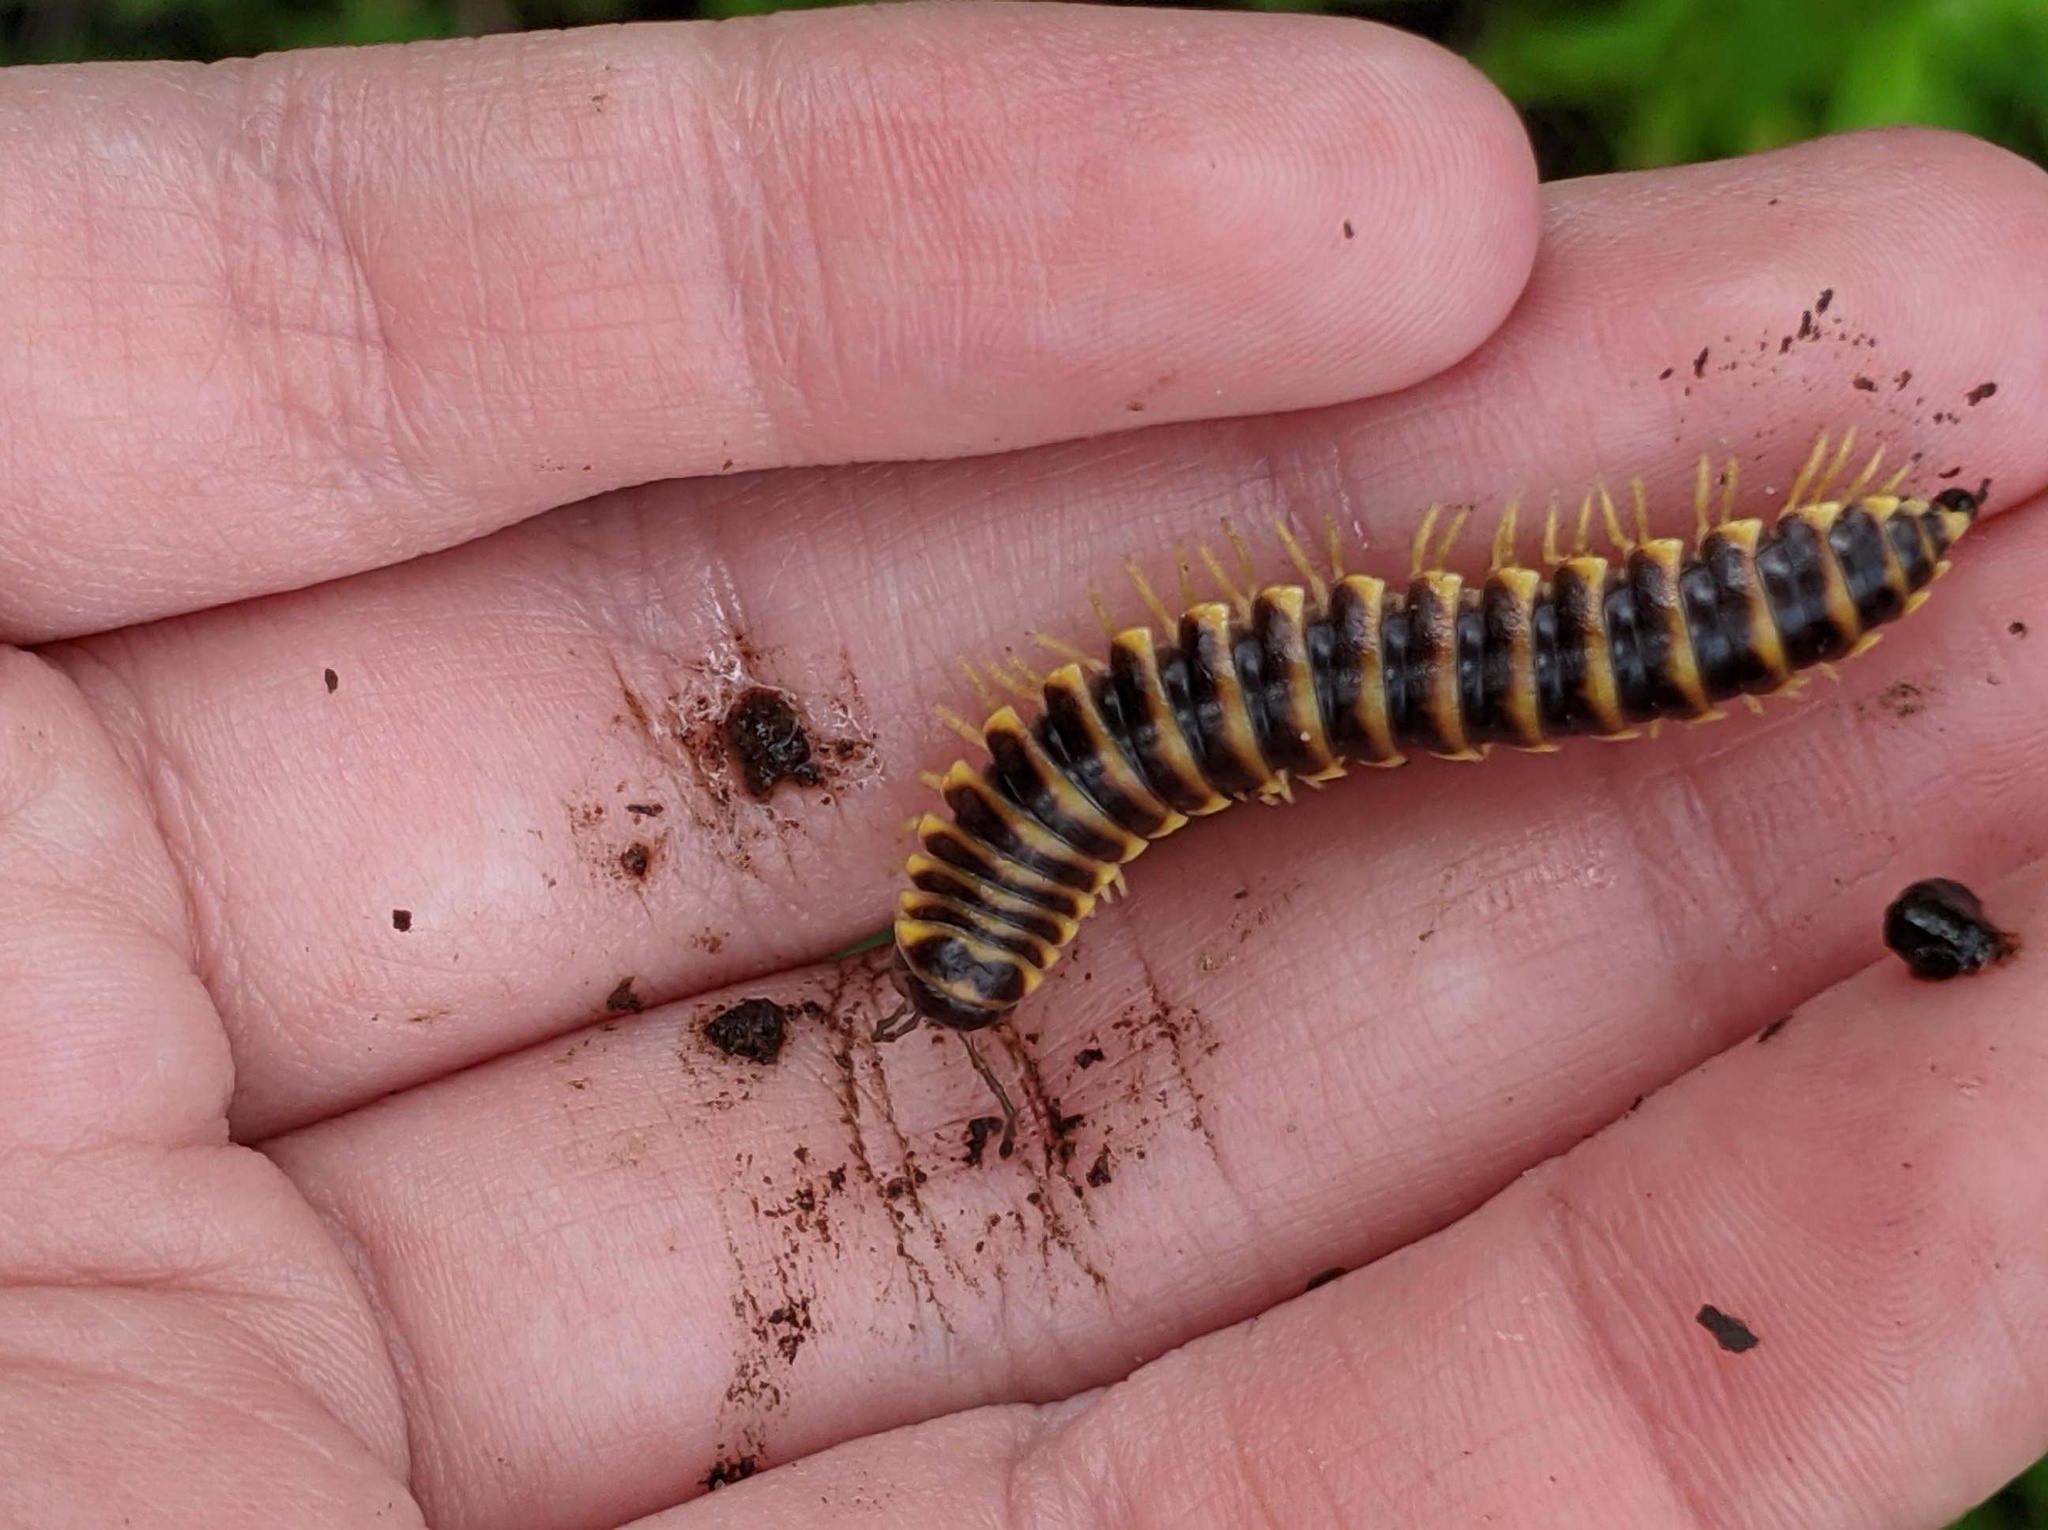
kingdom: Animalia
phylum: Arthropoda
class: Diplopoda
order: Polydesmida
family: Xystodesmidae
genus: Pleuroloma
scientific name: Pleuroloma flavipes
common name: Yellow-legged pleuroloma
